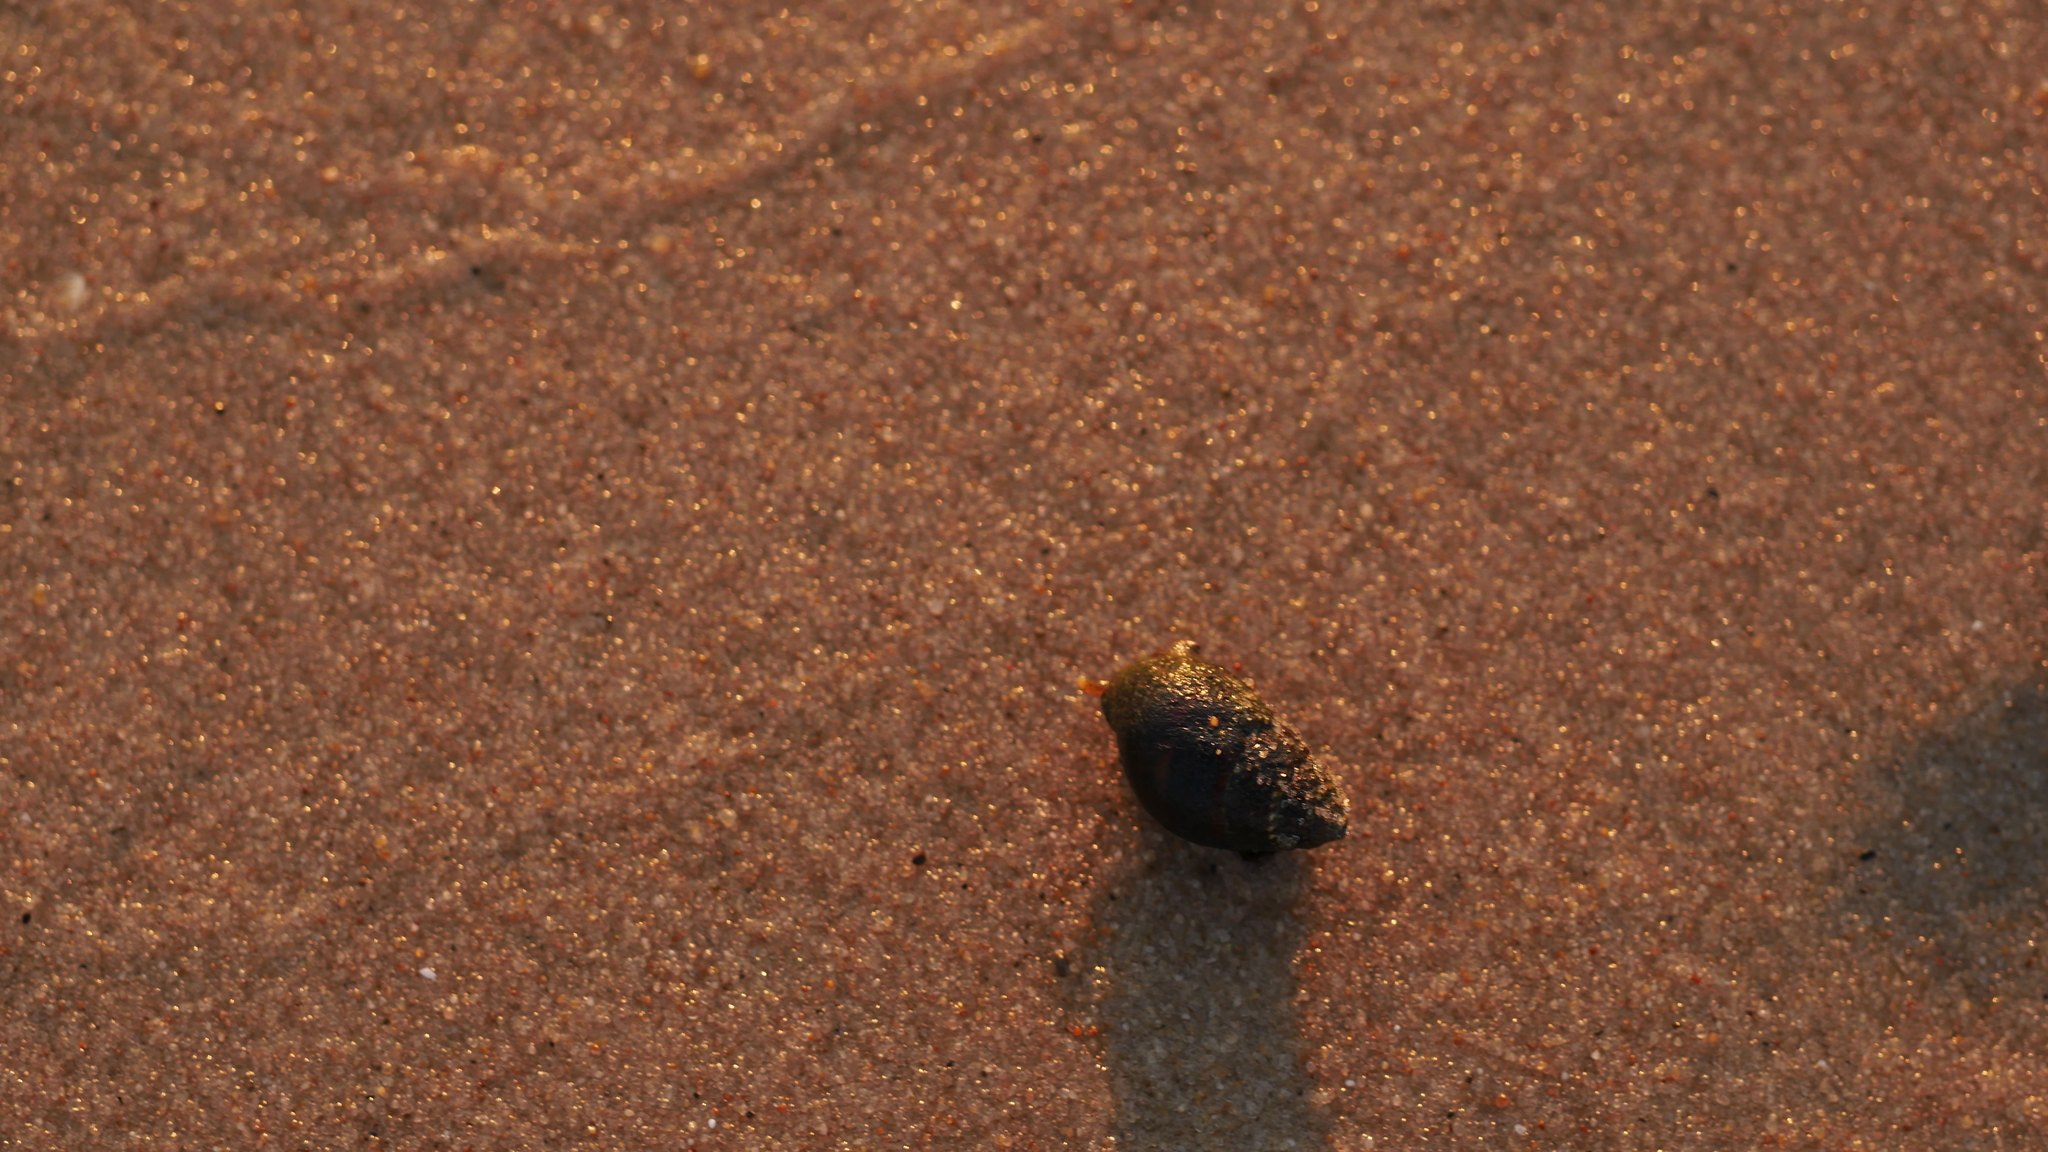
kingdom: Animalia
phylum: Mollusca
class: Gastropoda
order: Neogastropoda
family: Nassariidae
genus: Ilyanassa
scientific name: Ilyanassa obsoleta
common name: Eastern mudsnail
